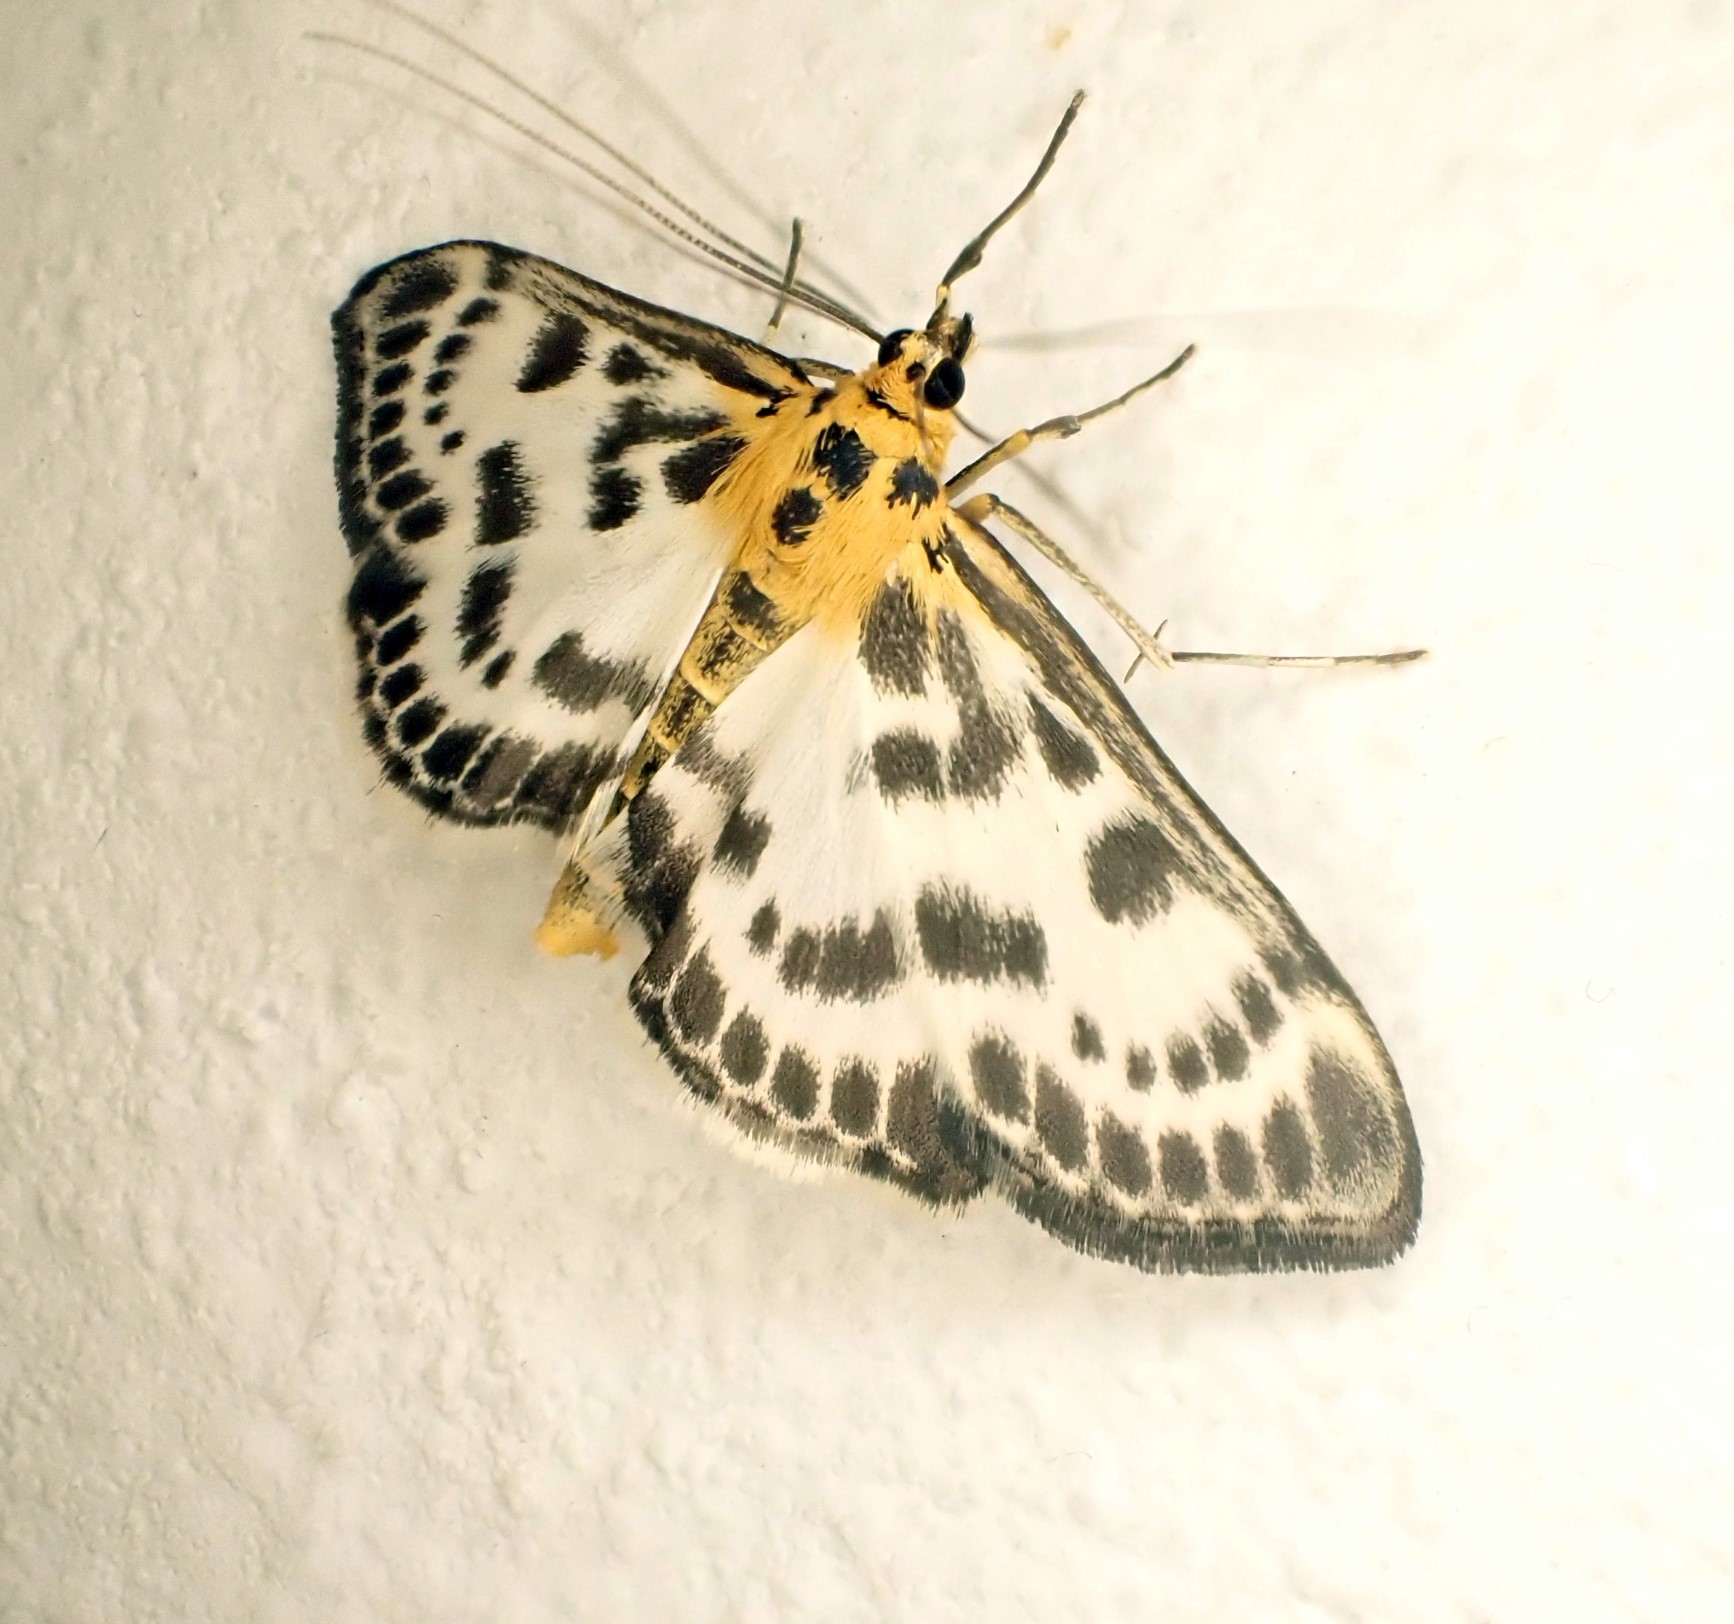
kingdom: Animalia
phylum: Arthropoda
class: Insecta
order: Lepidoptera
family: Crambidae
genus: Anania
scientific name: Anania hortulata
